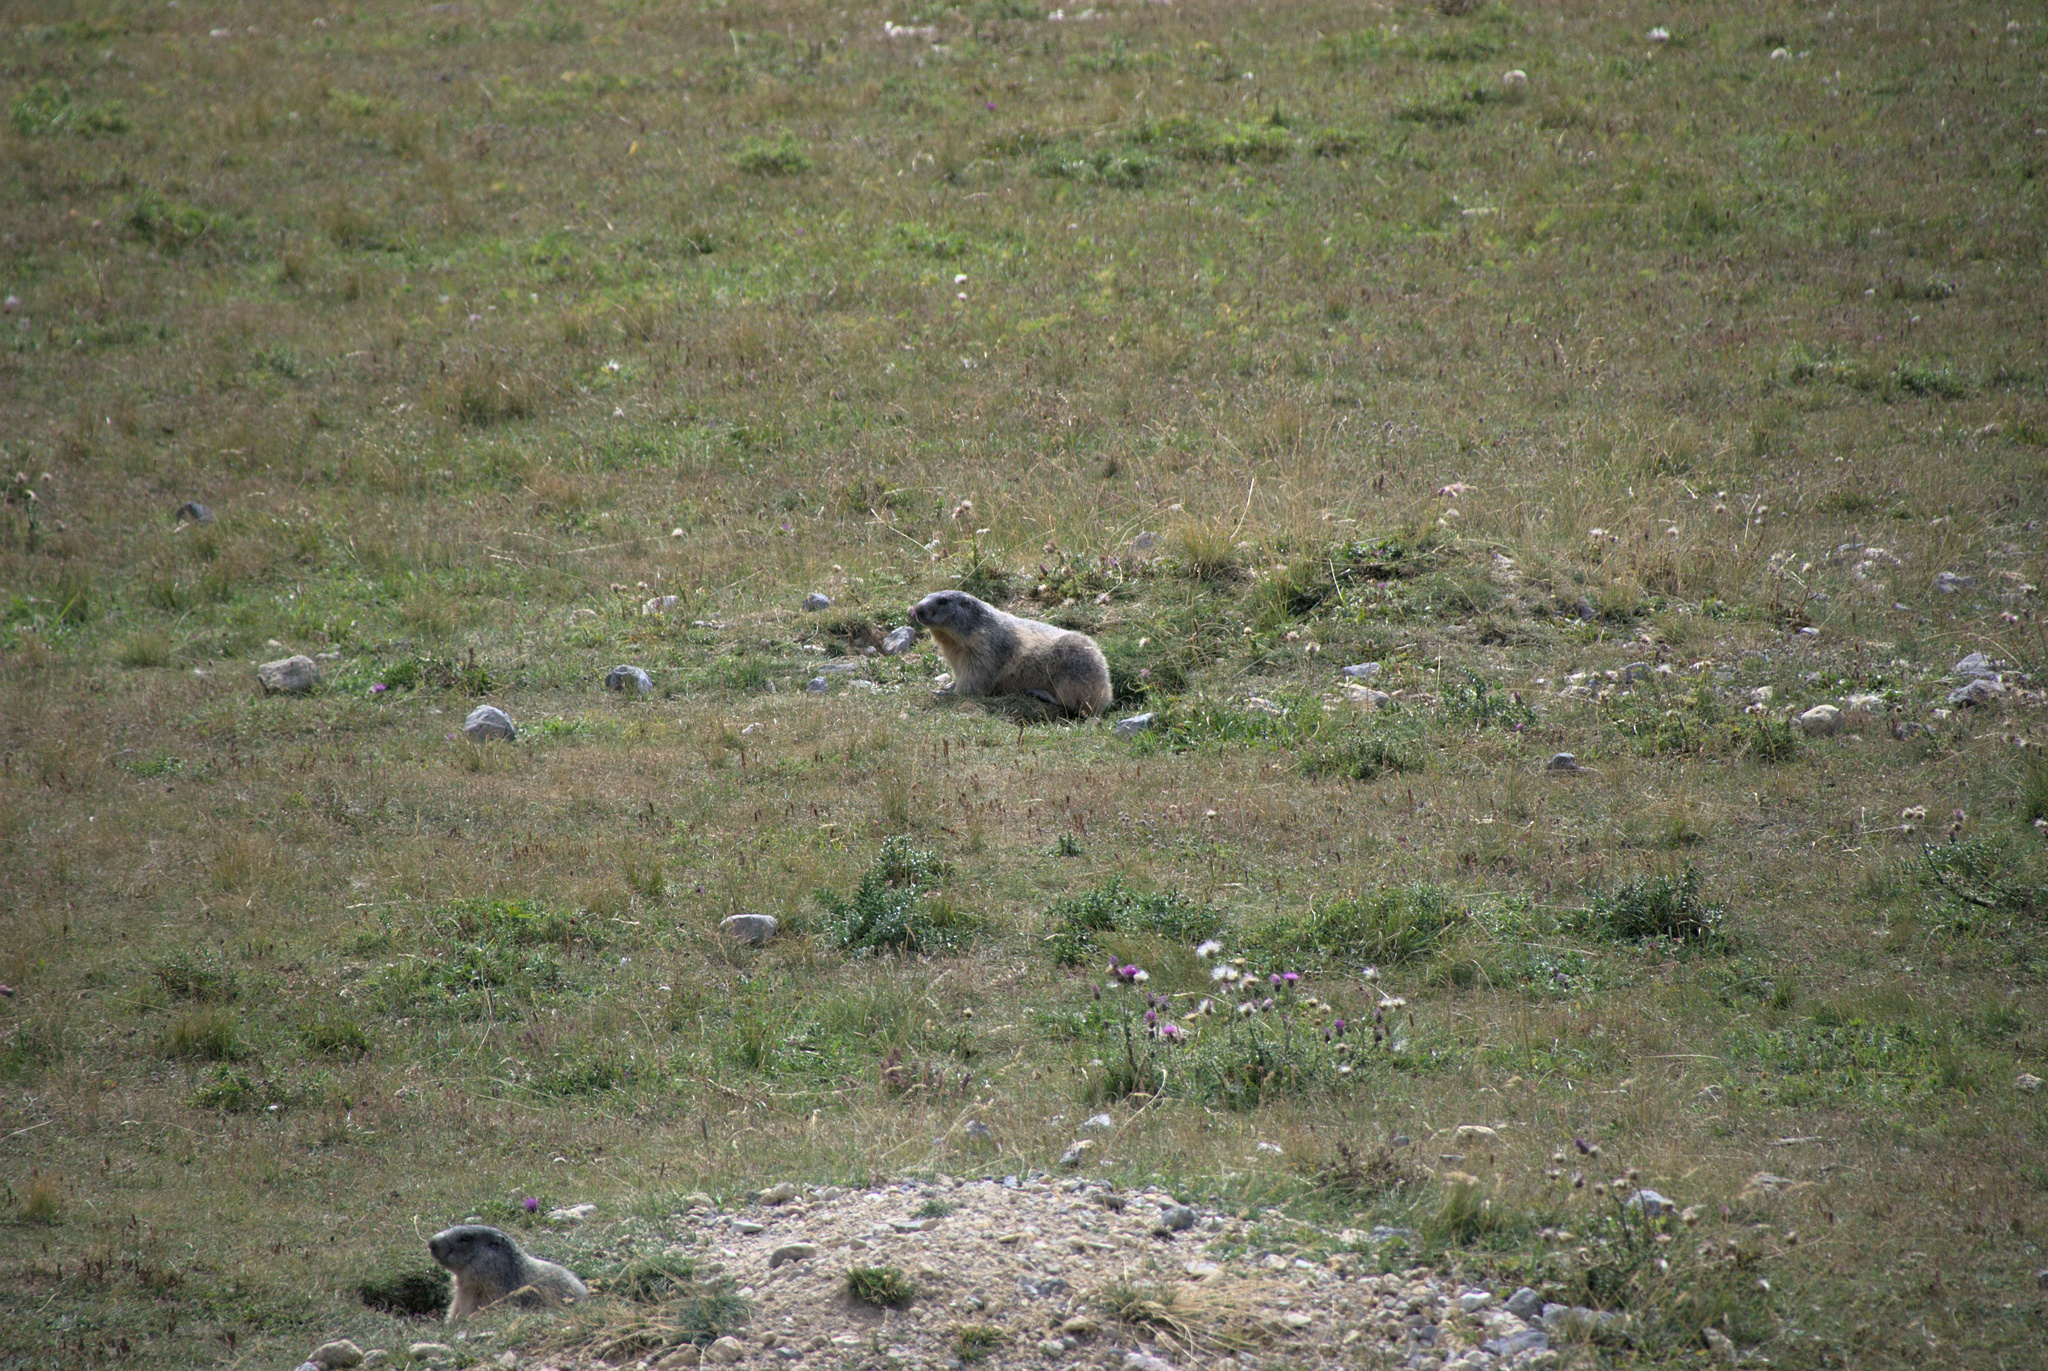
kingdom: Animalia
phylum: Chordata
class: Mammalia
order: Rodentia
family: Sciuridae
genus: Marmota
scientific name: Marmota marmota
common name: Alpine marmot
